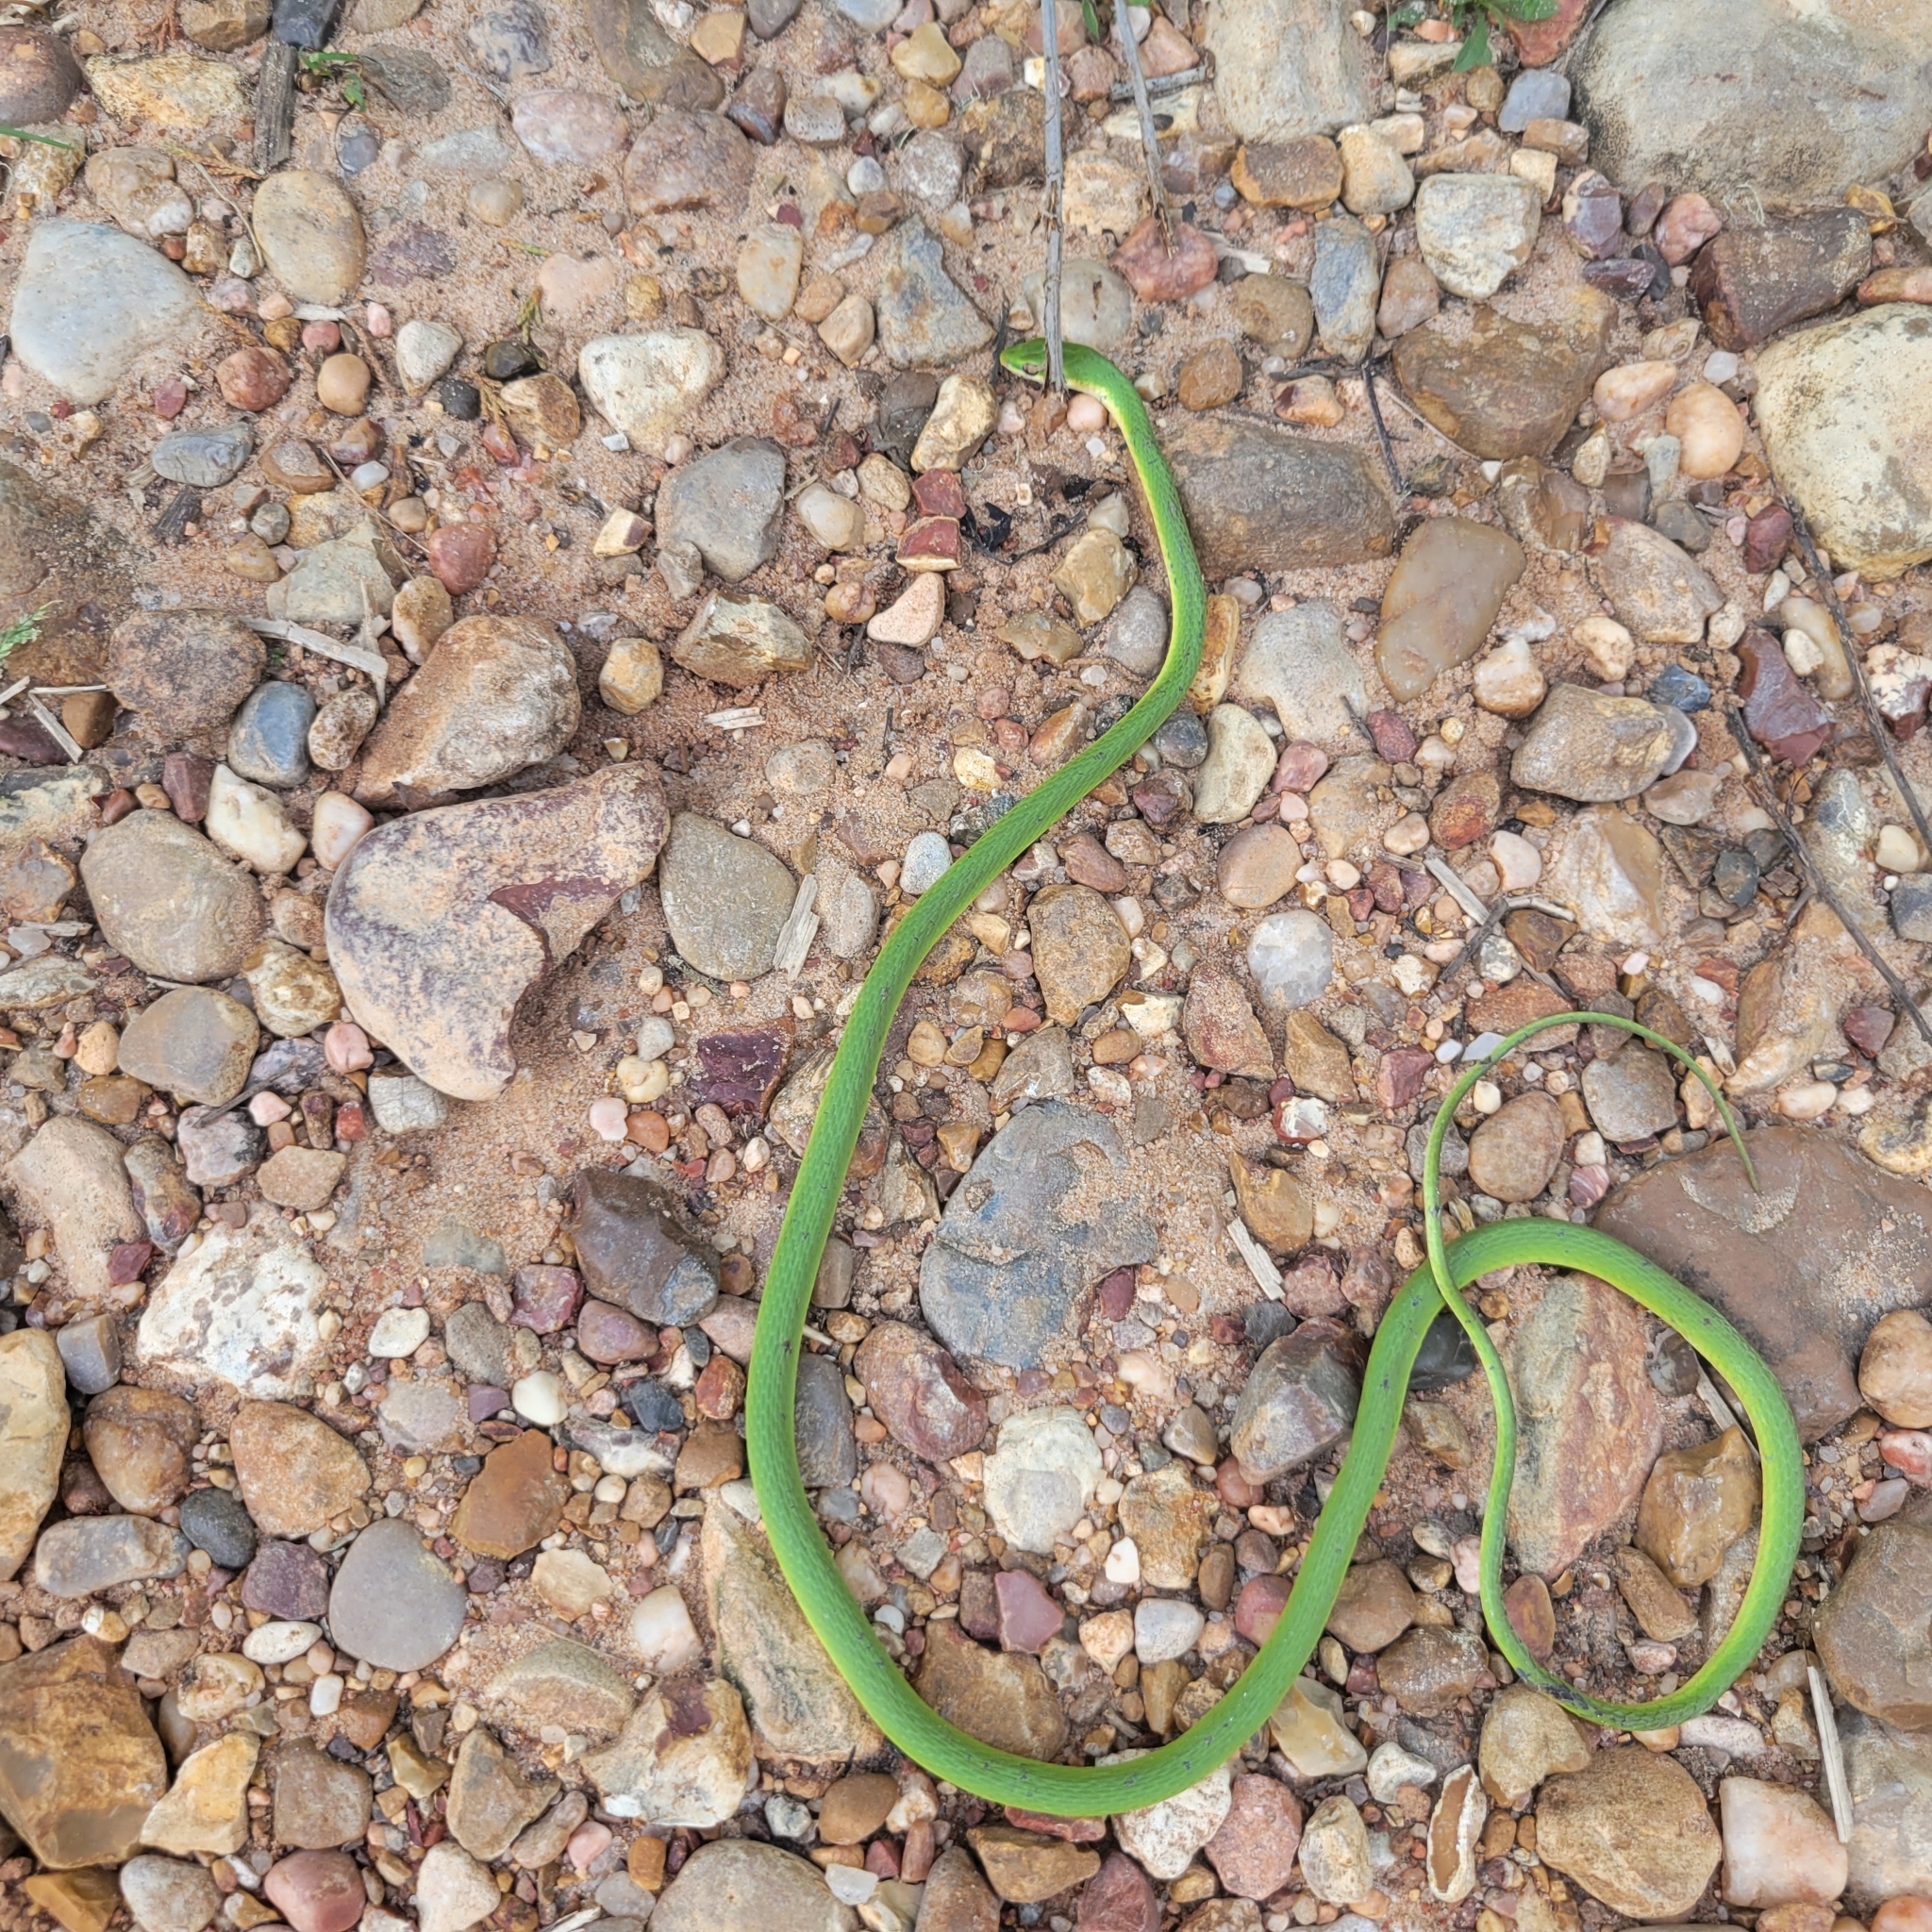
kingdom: Animalia
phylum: Chordata
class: Squamata
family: Colubridae
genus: Opheodrys
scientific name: Opheodrys aestivus
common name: Rough greensnake
